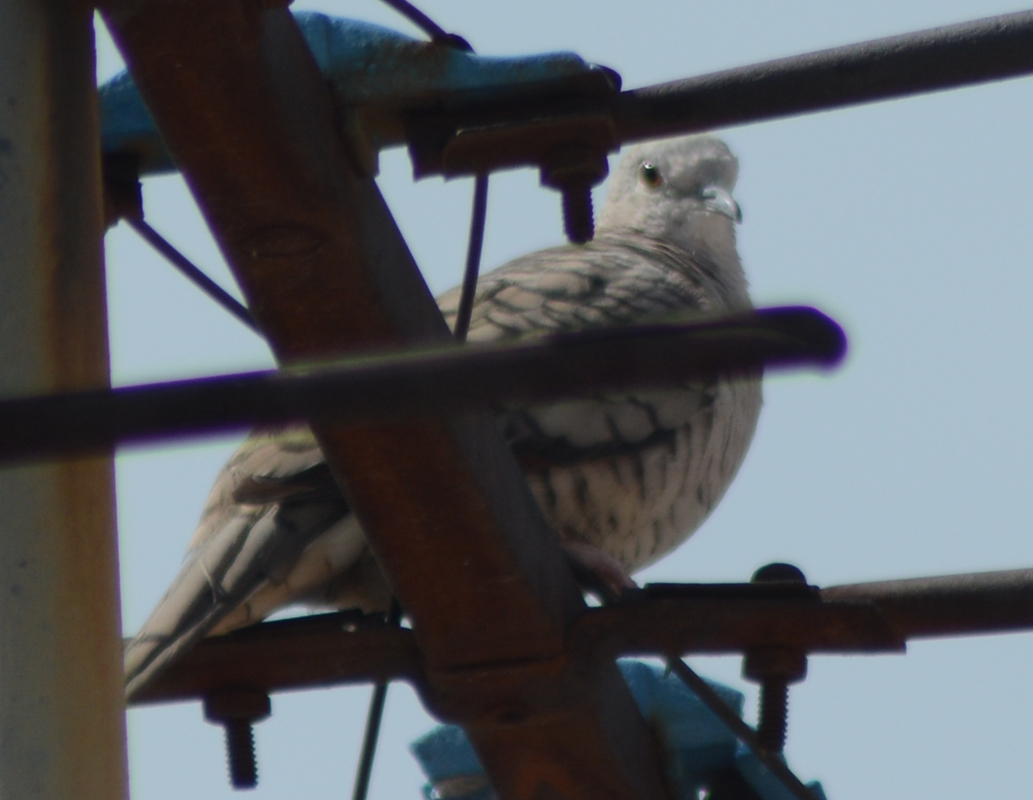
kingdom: Animalia
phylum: Chordata
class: Aves
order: Columbiformes
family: Columbidae
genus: Columbina
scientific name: Columbina inca
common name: Inca dove
